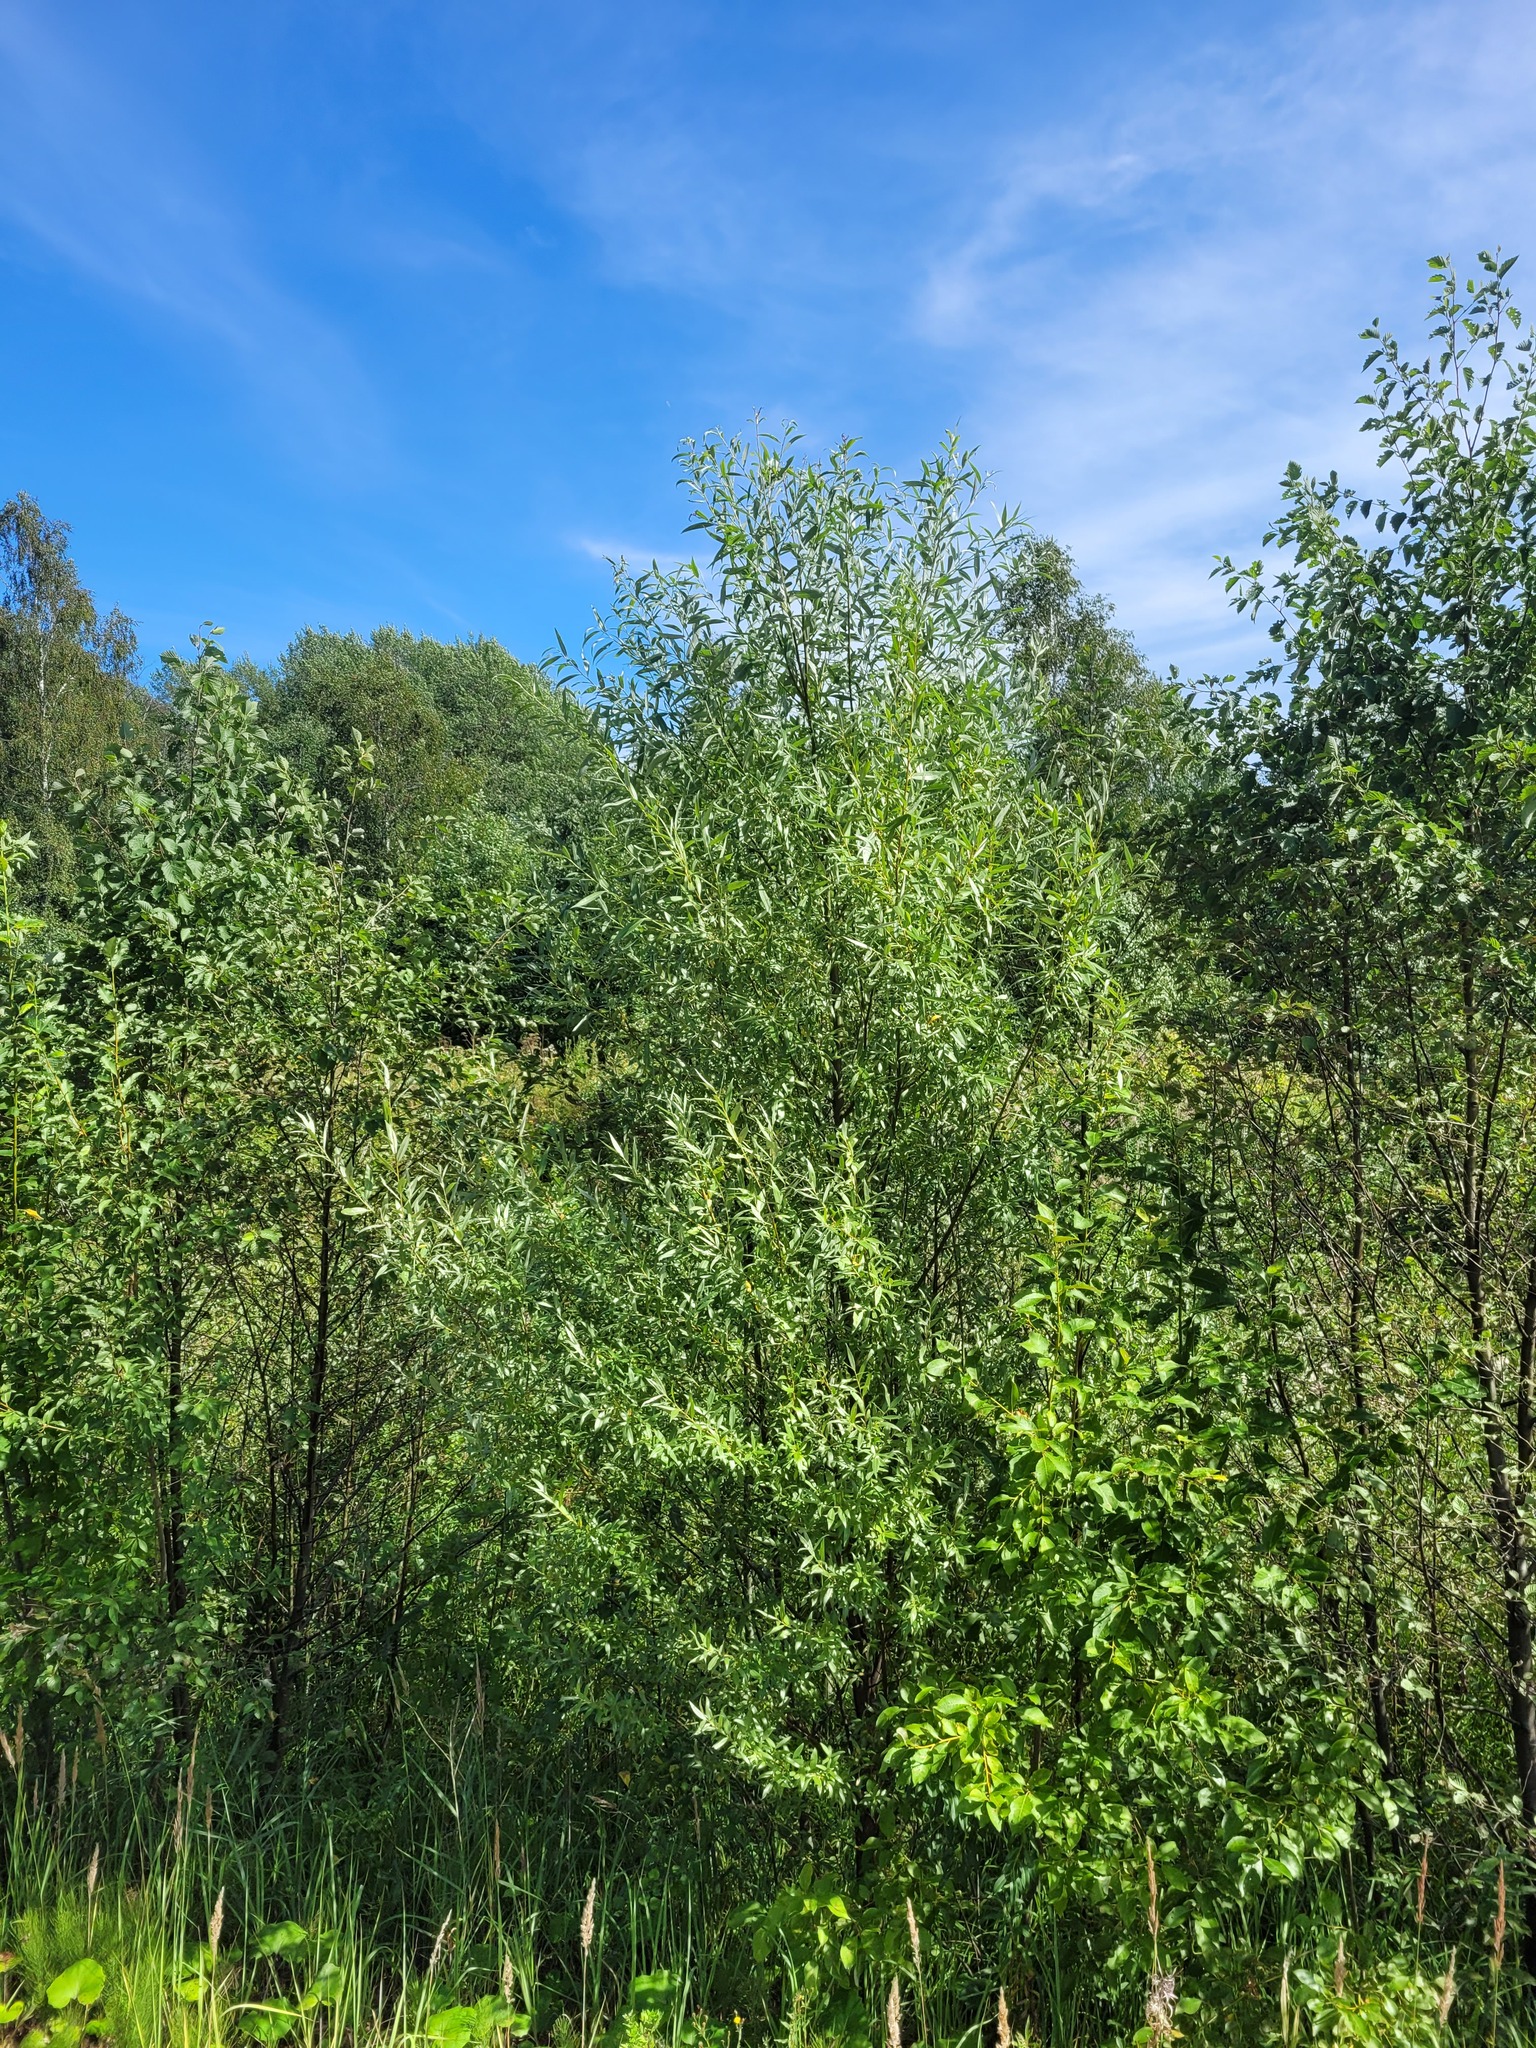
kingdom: Plantae
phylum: Tracheophyta
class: Magnoliopsida
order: Malpighiales
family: Salicaceae
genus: Salix
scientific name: Salix alba
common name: White willow
